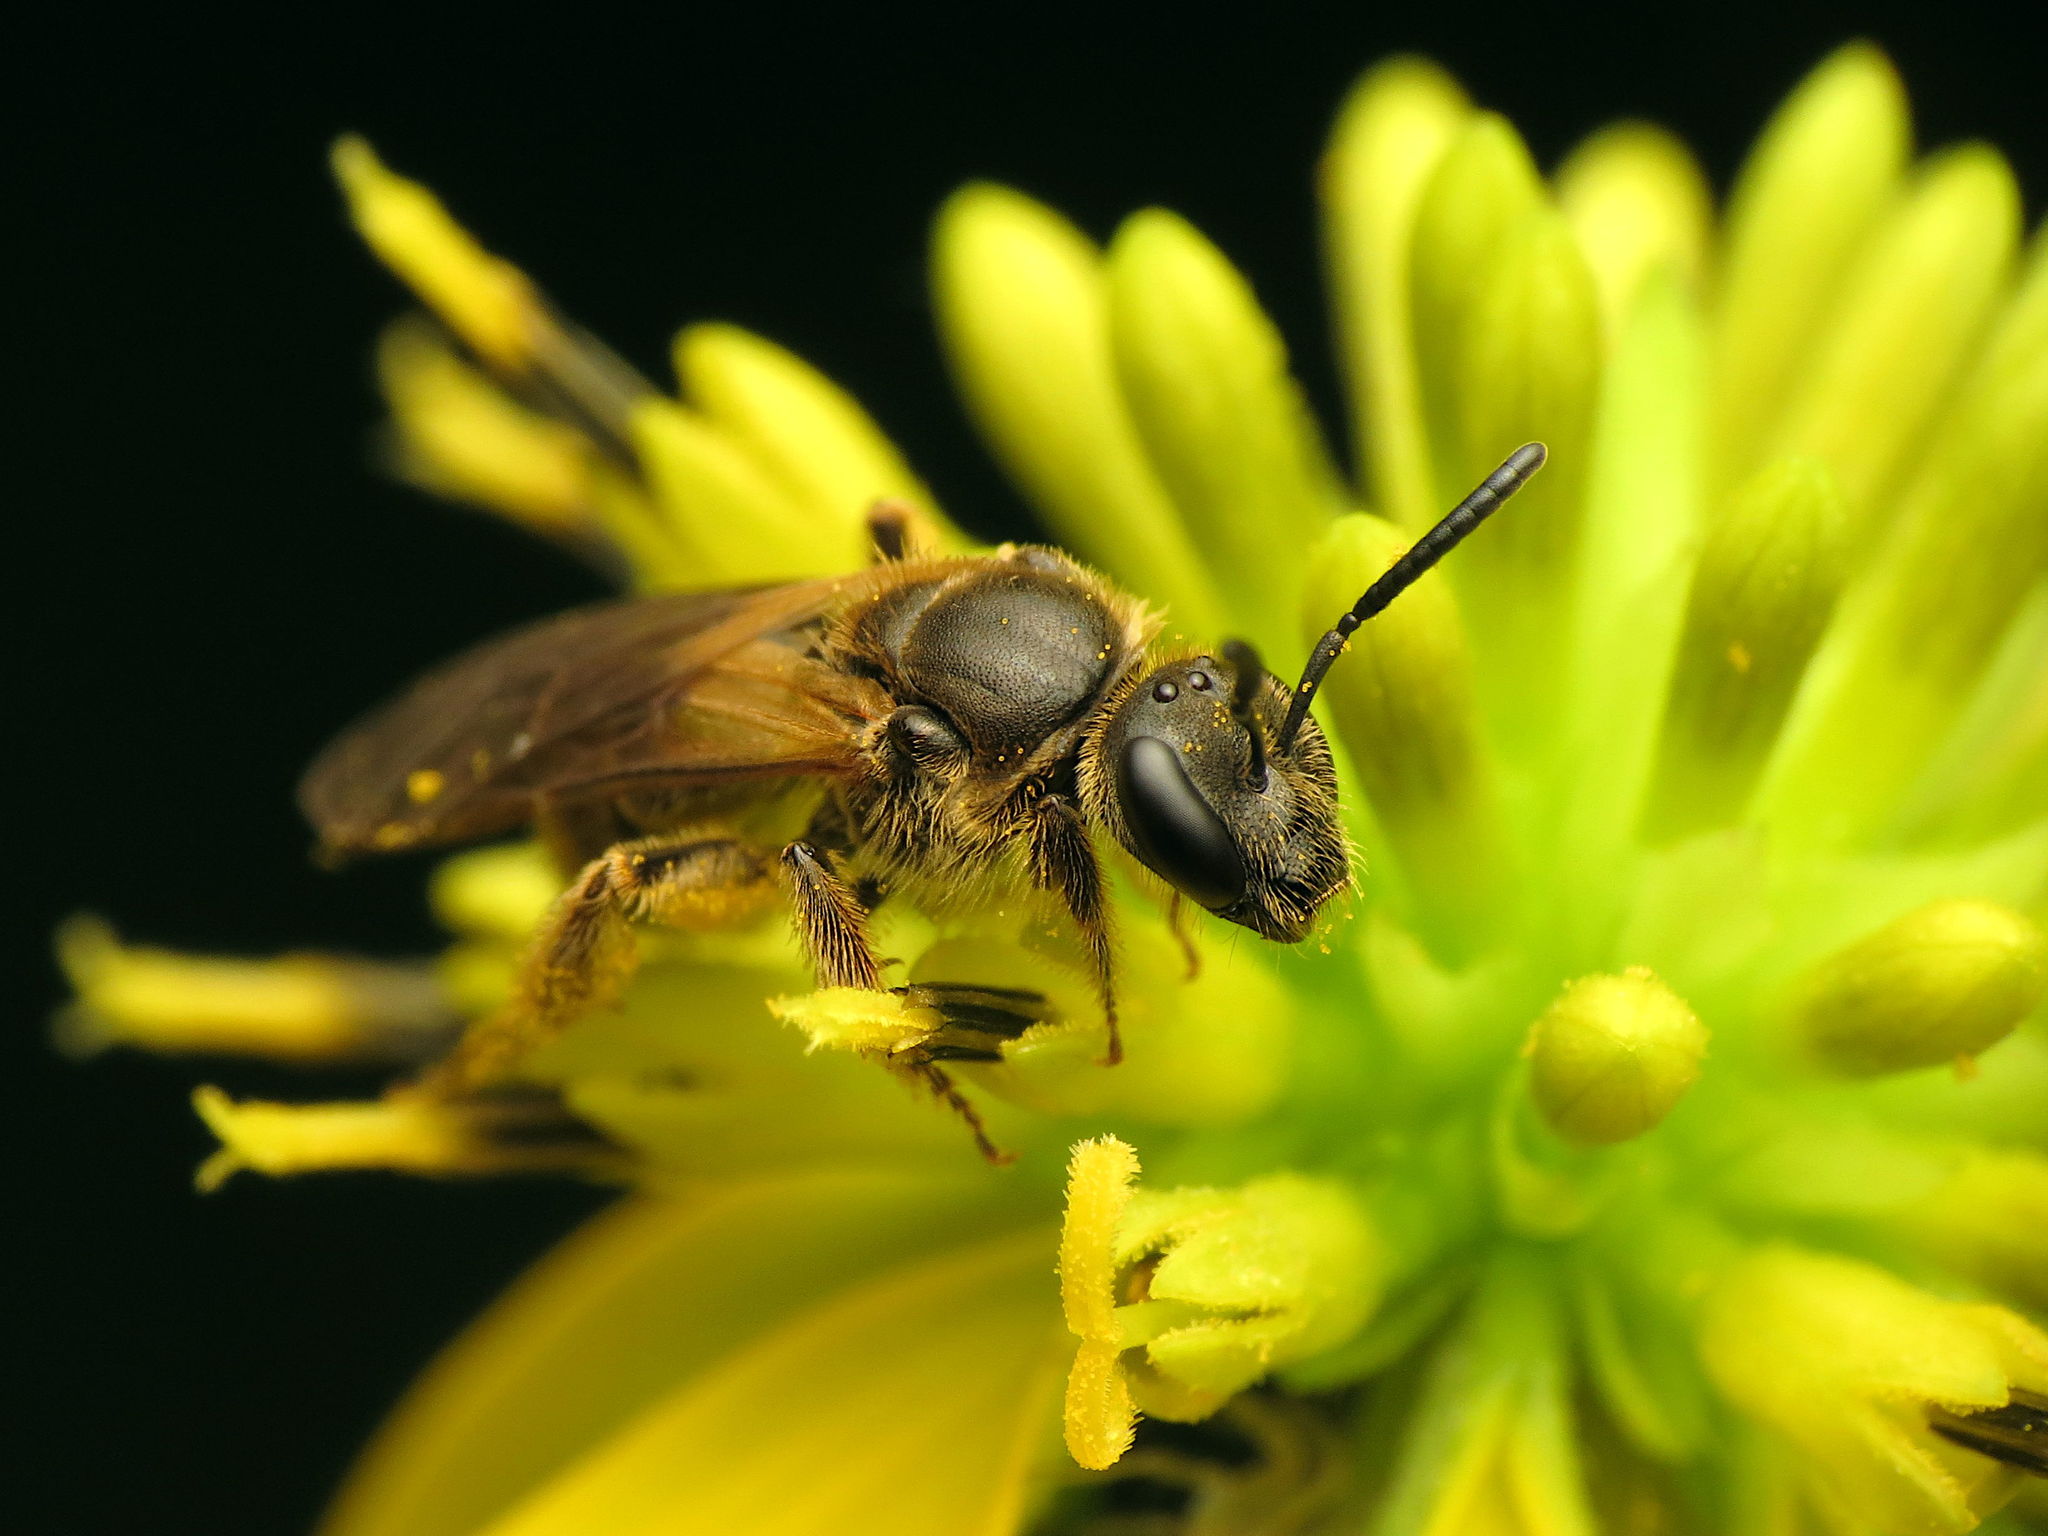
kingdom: Animalia
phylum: Arthropoda
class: Insecta
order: Hymenoptera
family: Halictidae
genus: Lasioglossum
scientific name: Lasioglossum quebecense
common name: Quebec sweat bee
